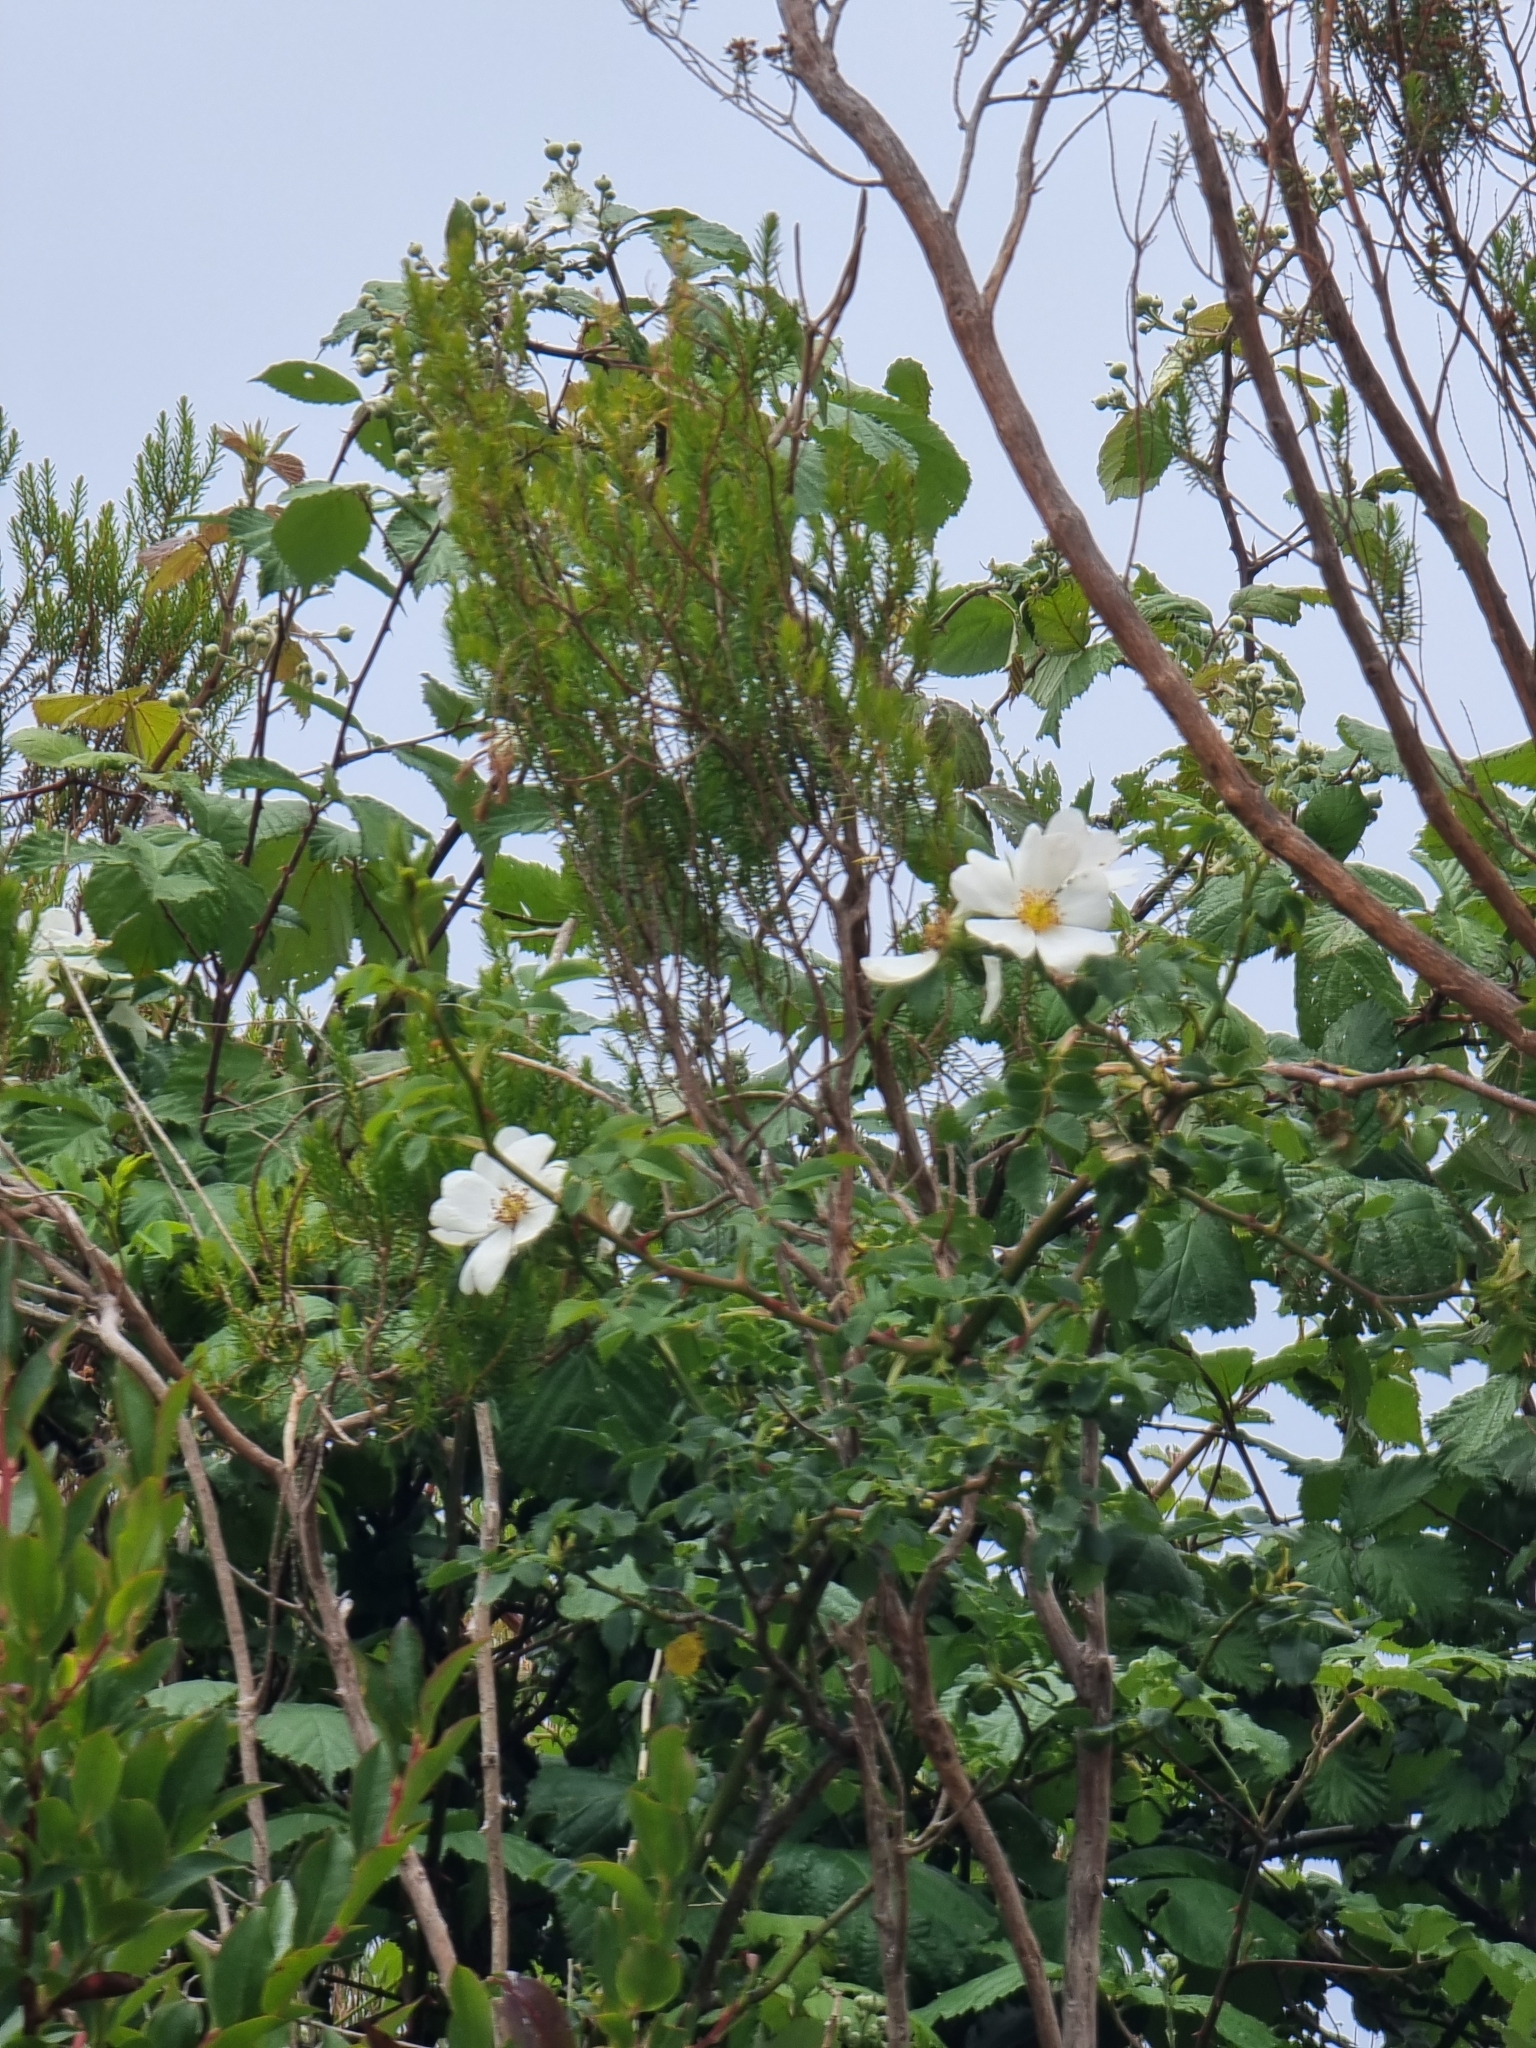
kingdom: Plantae
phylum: Tracheophyta
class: Magnoliopsida
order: Rosales
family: Rosaceae
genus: Rosa
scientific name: Rosa canina
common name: Dog rose
